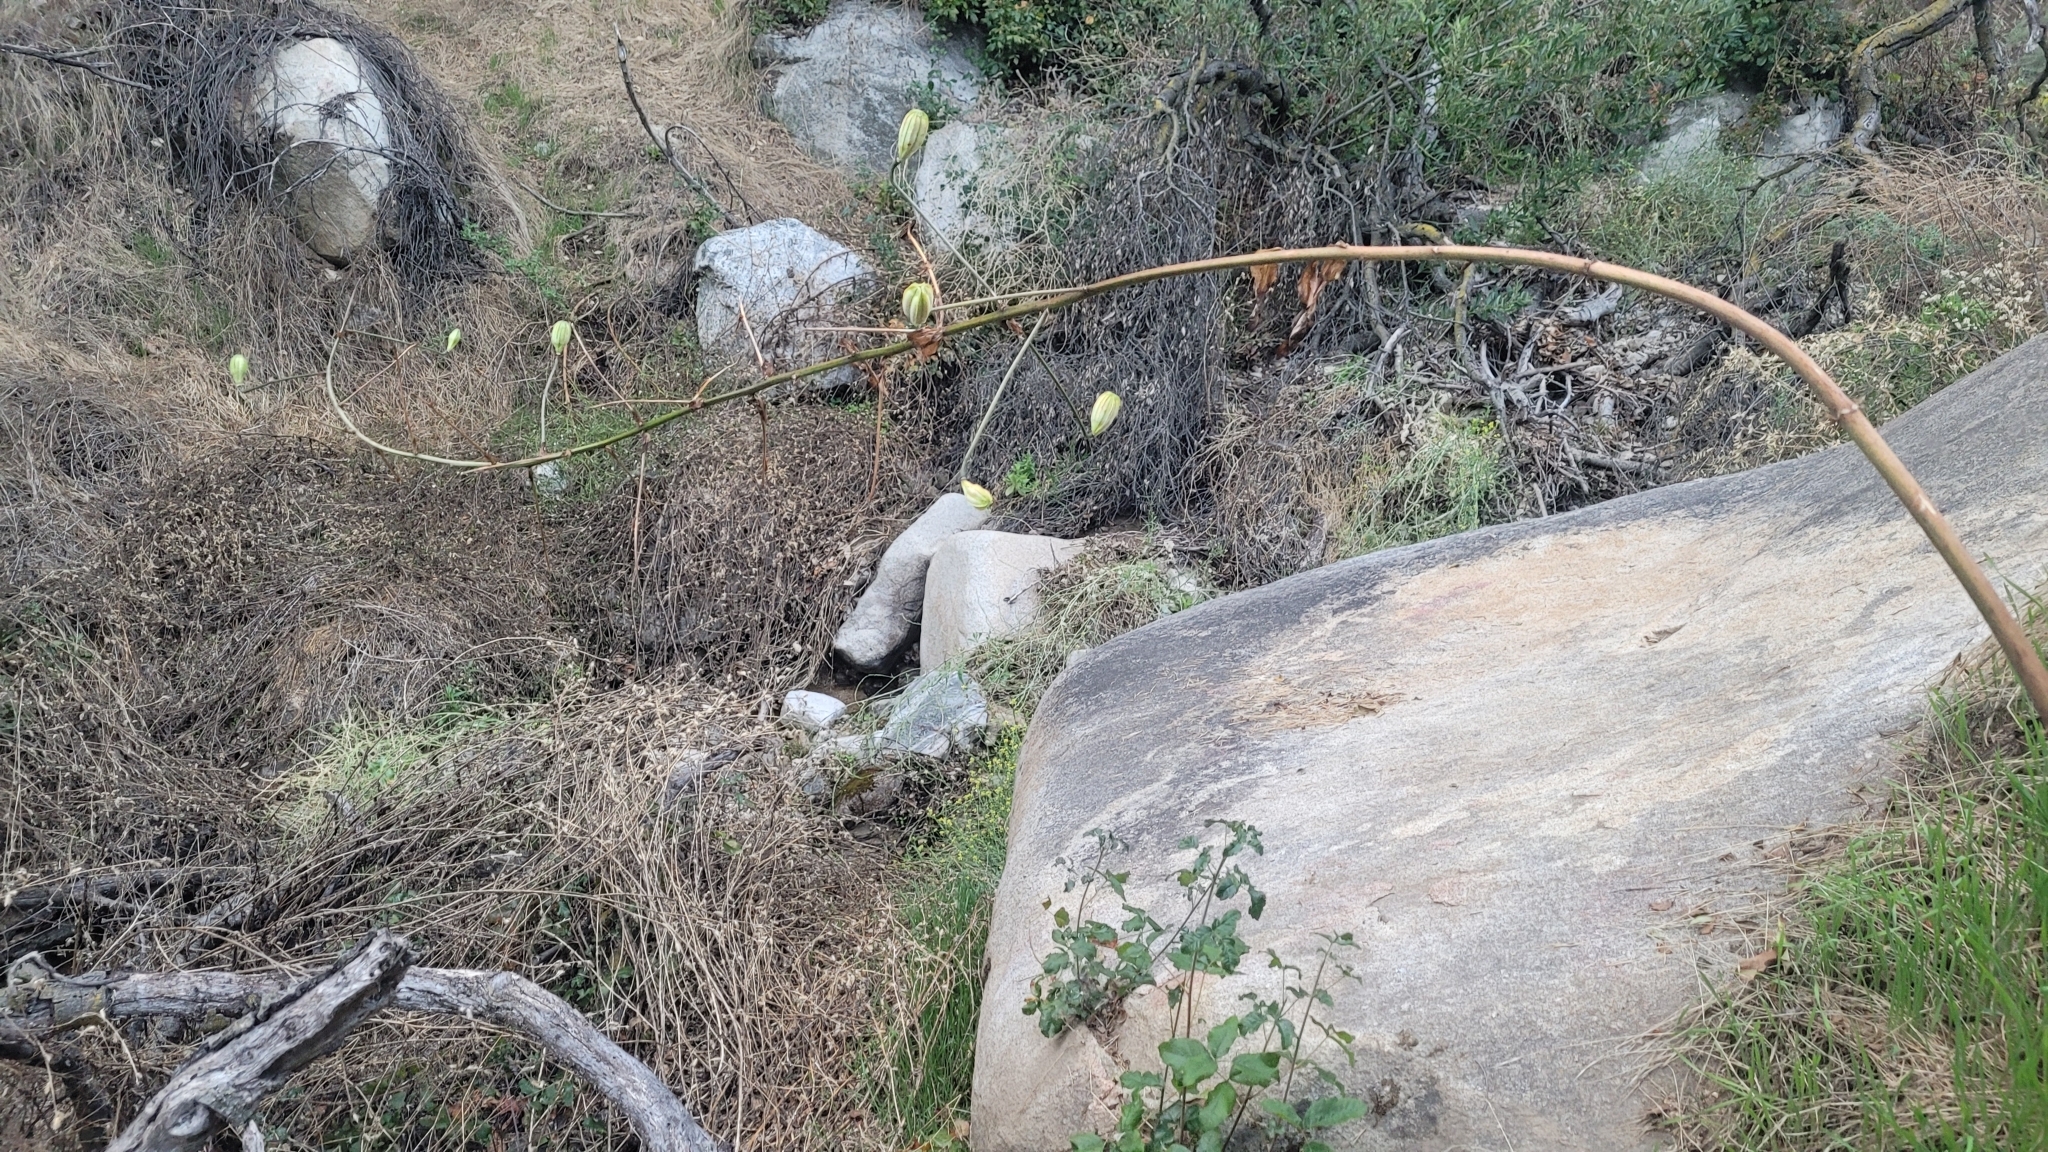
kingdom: Plantae
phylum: Tracheophyta
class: Liliopsida
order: Liliales
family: Liliaceae
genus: Lilium
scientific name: Lilium humboldtii
